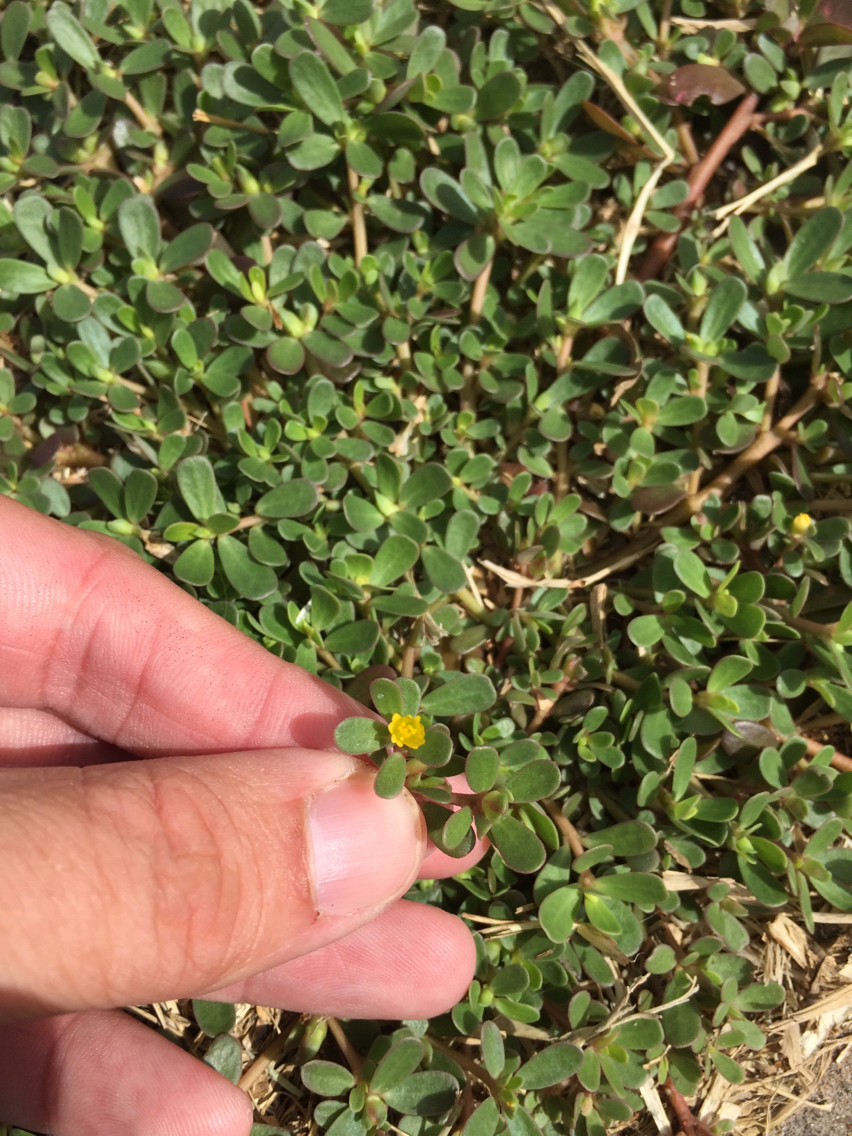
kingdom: Plantae
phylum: Tracheophyta
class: Magnoliopsida
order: Caryophyllales
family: Portulacaceae
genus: Portulaca
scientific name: Portulaca oleracea
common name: Common purslane
